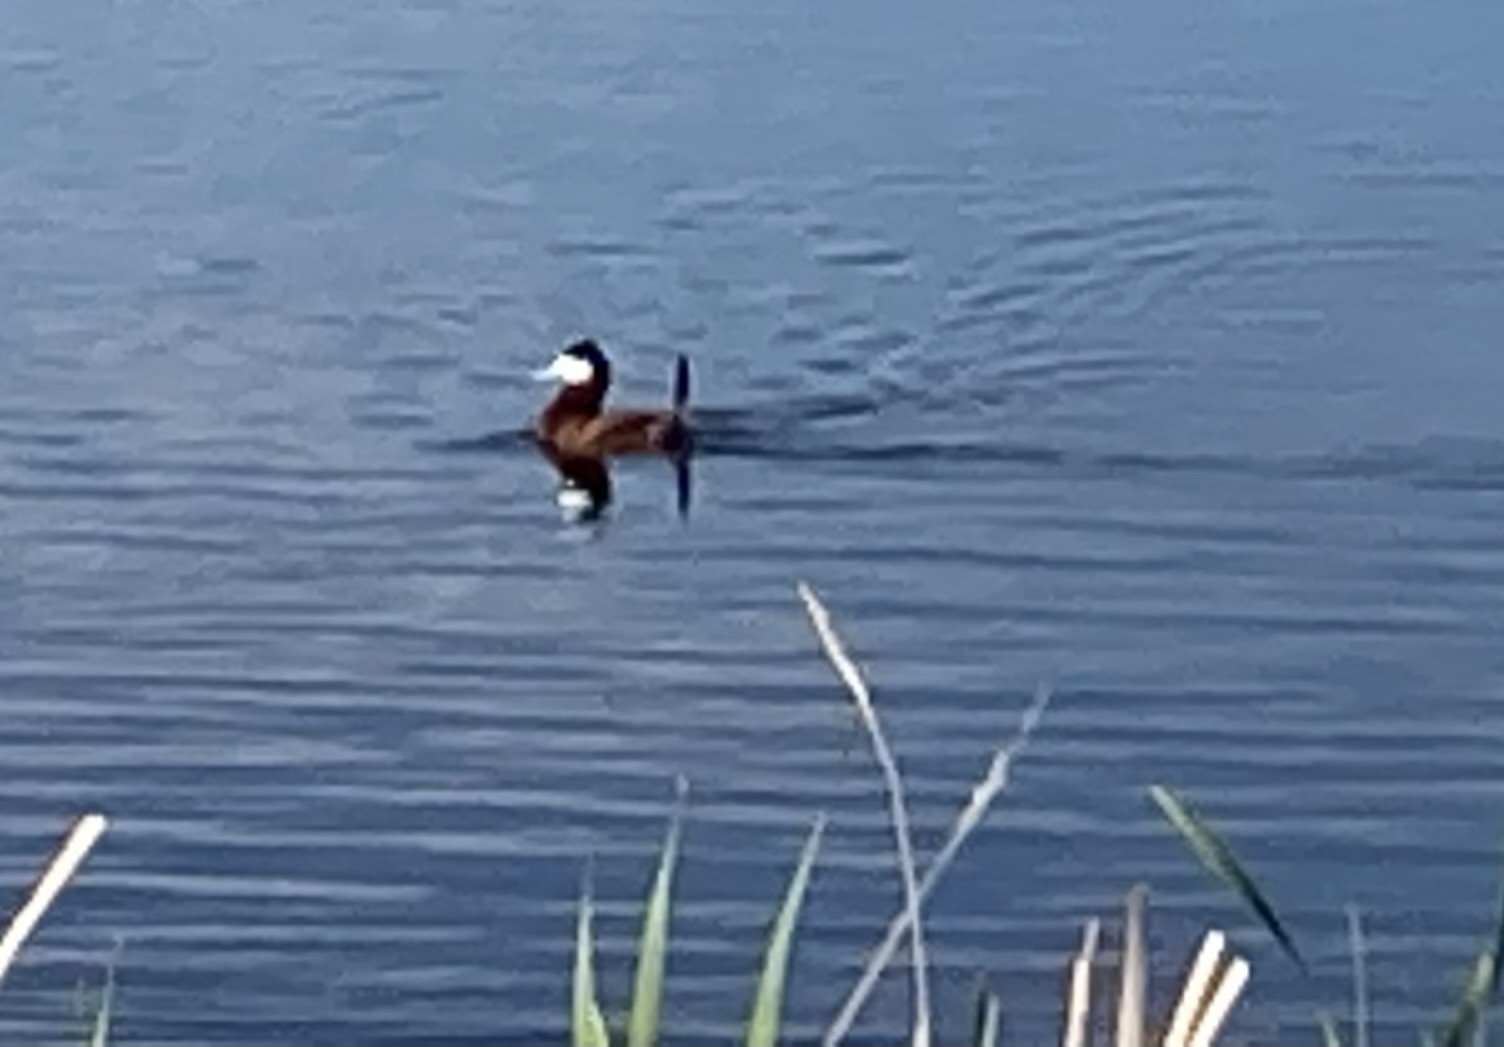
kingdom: Animalia
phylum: Chordata
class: Aves
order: Anseriformes
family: Anatidae
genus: Oxyura
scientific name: Oxyura jamaicensis
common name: Ruddy duck
